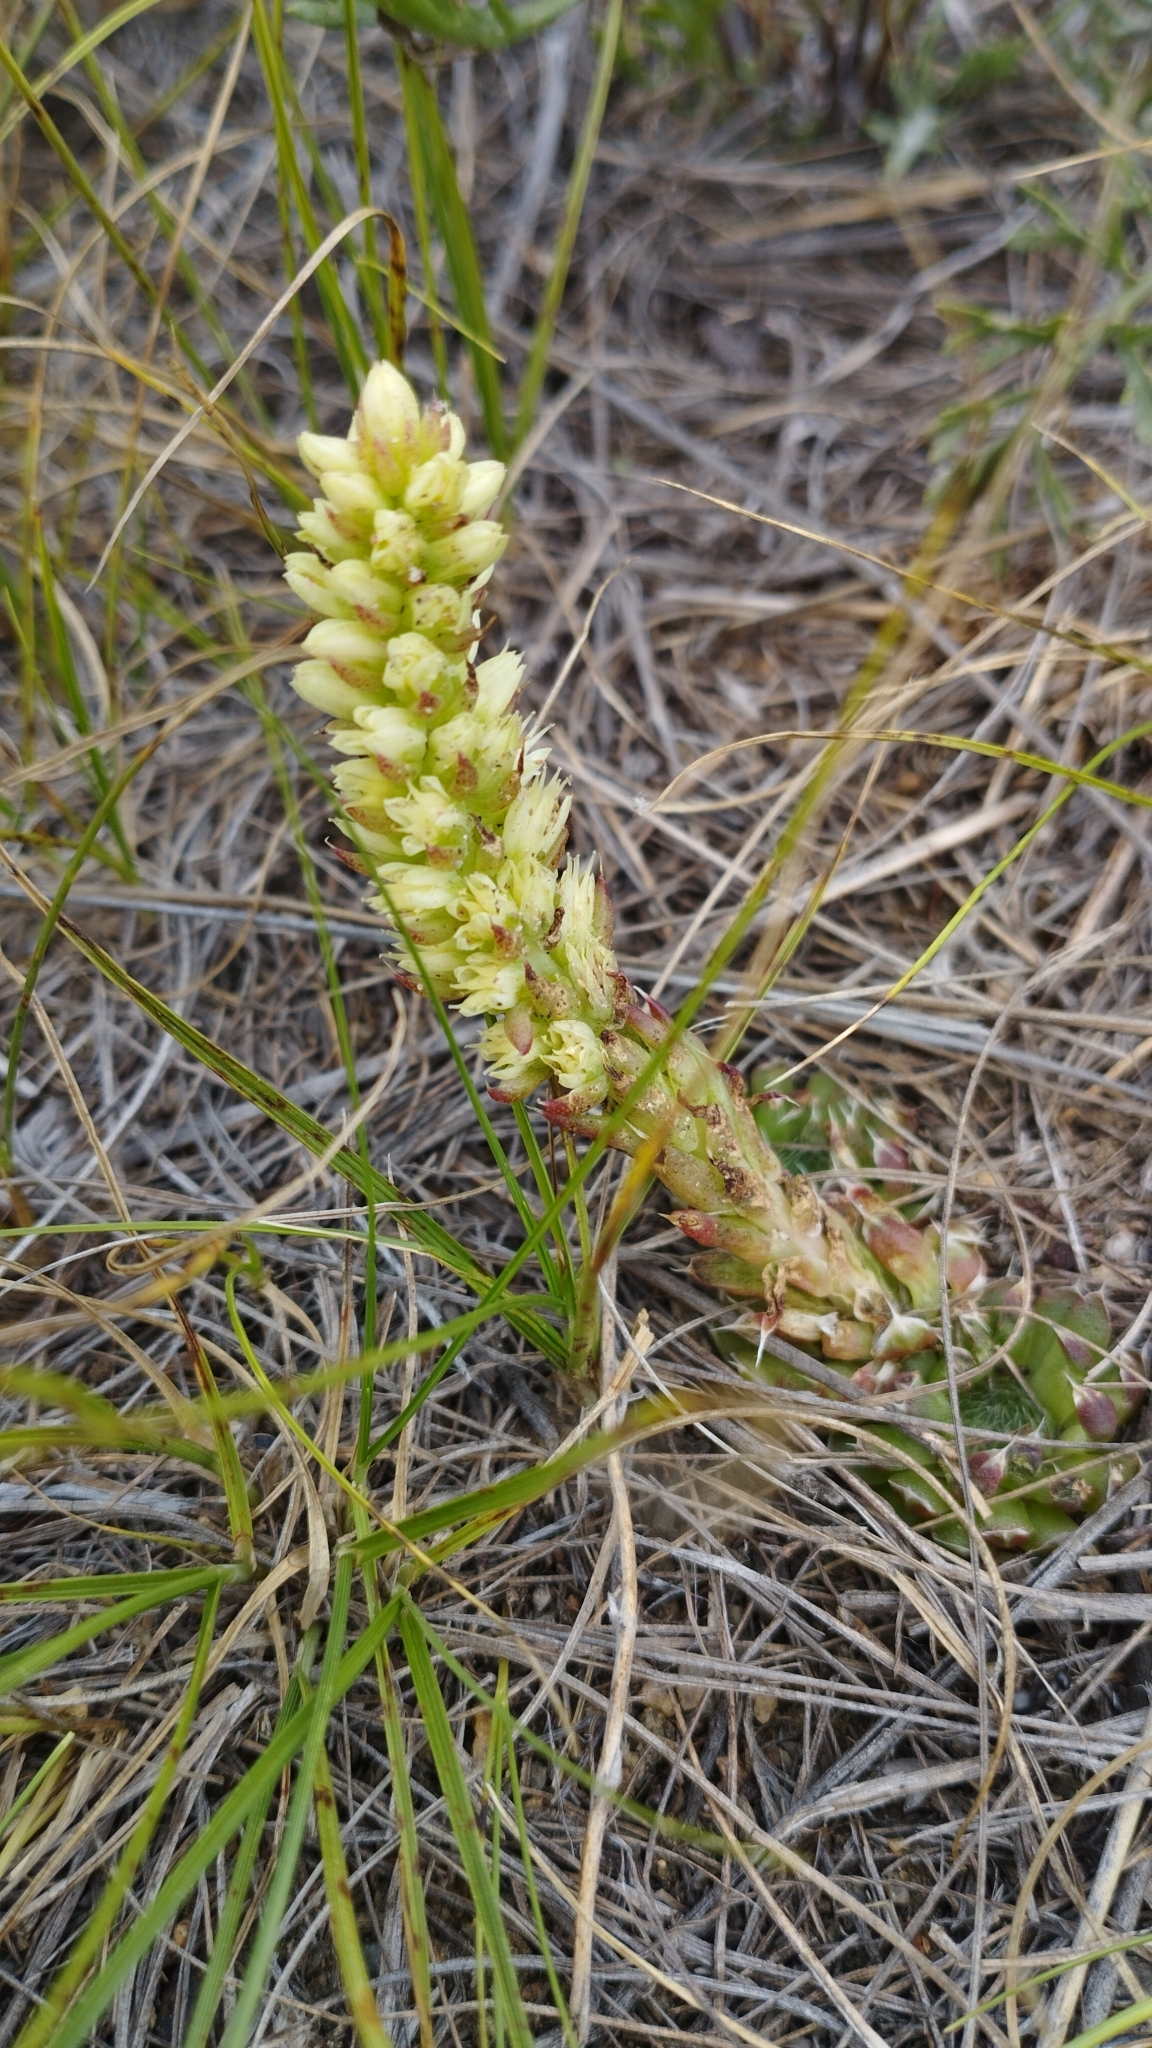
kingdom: Plantae
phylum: Tracheophyta
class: Magnoliopsida
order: Saxifragales
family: Crassulaceae
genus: Orostachys
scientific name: Orostachys spinosa
